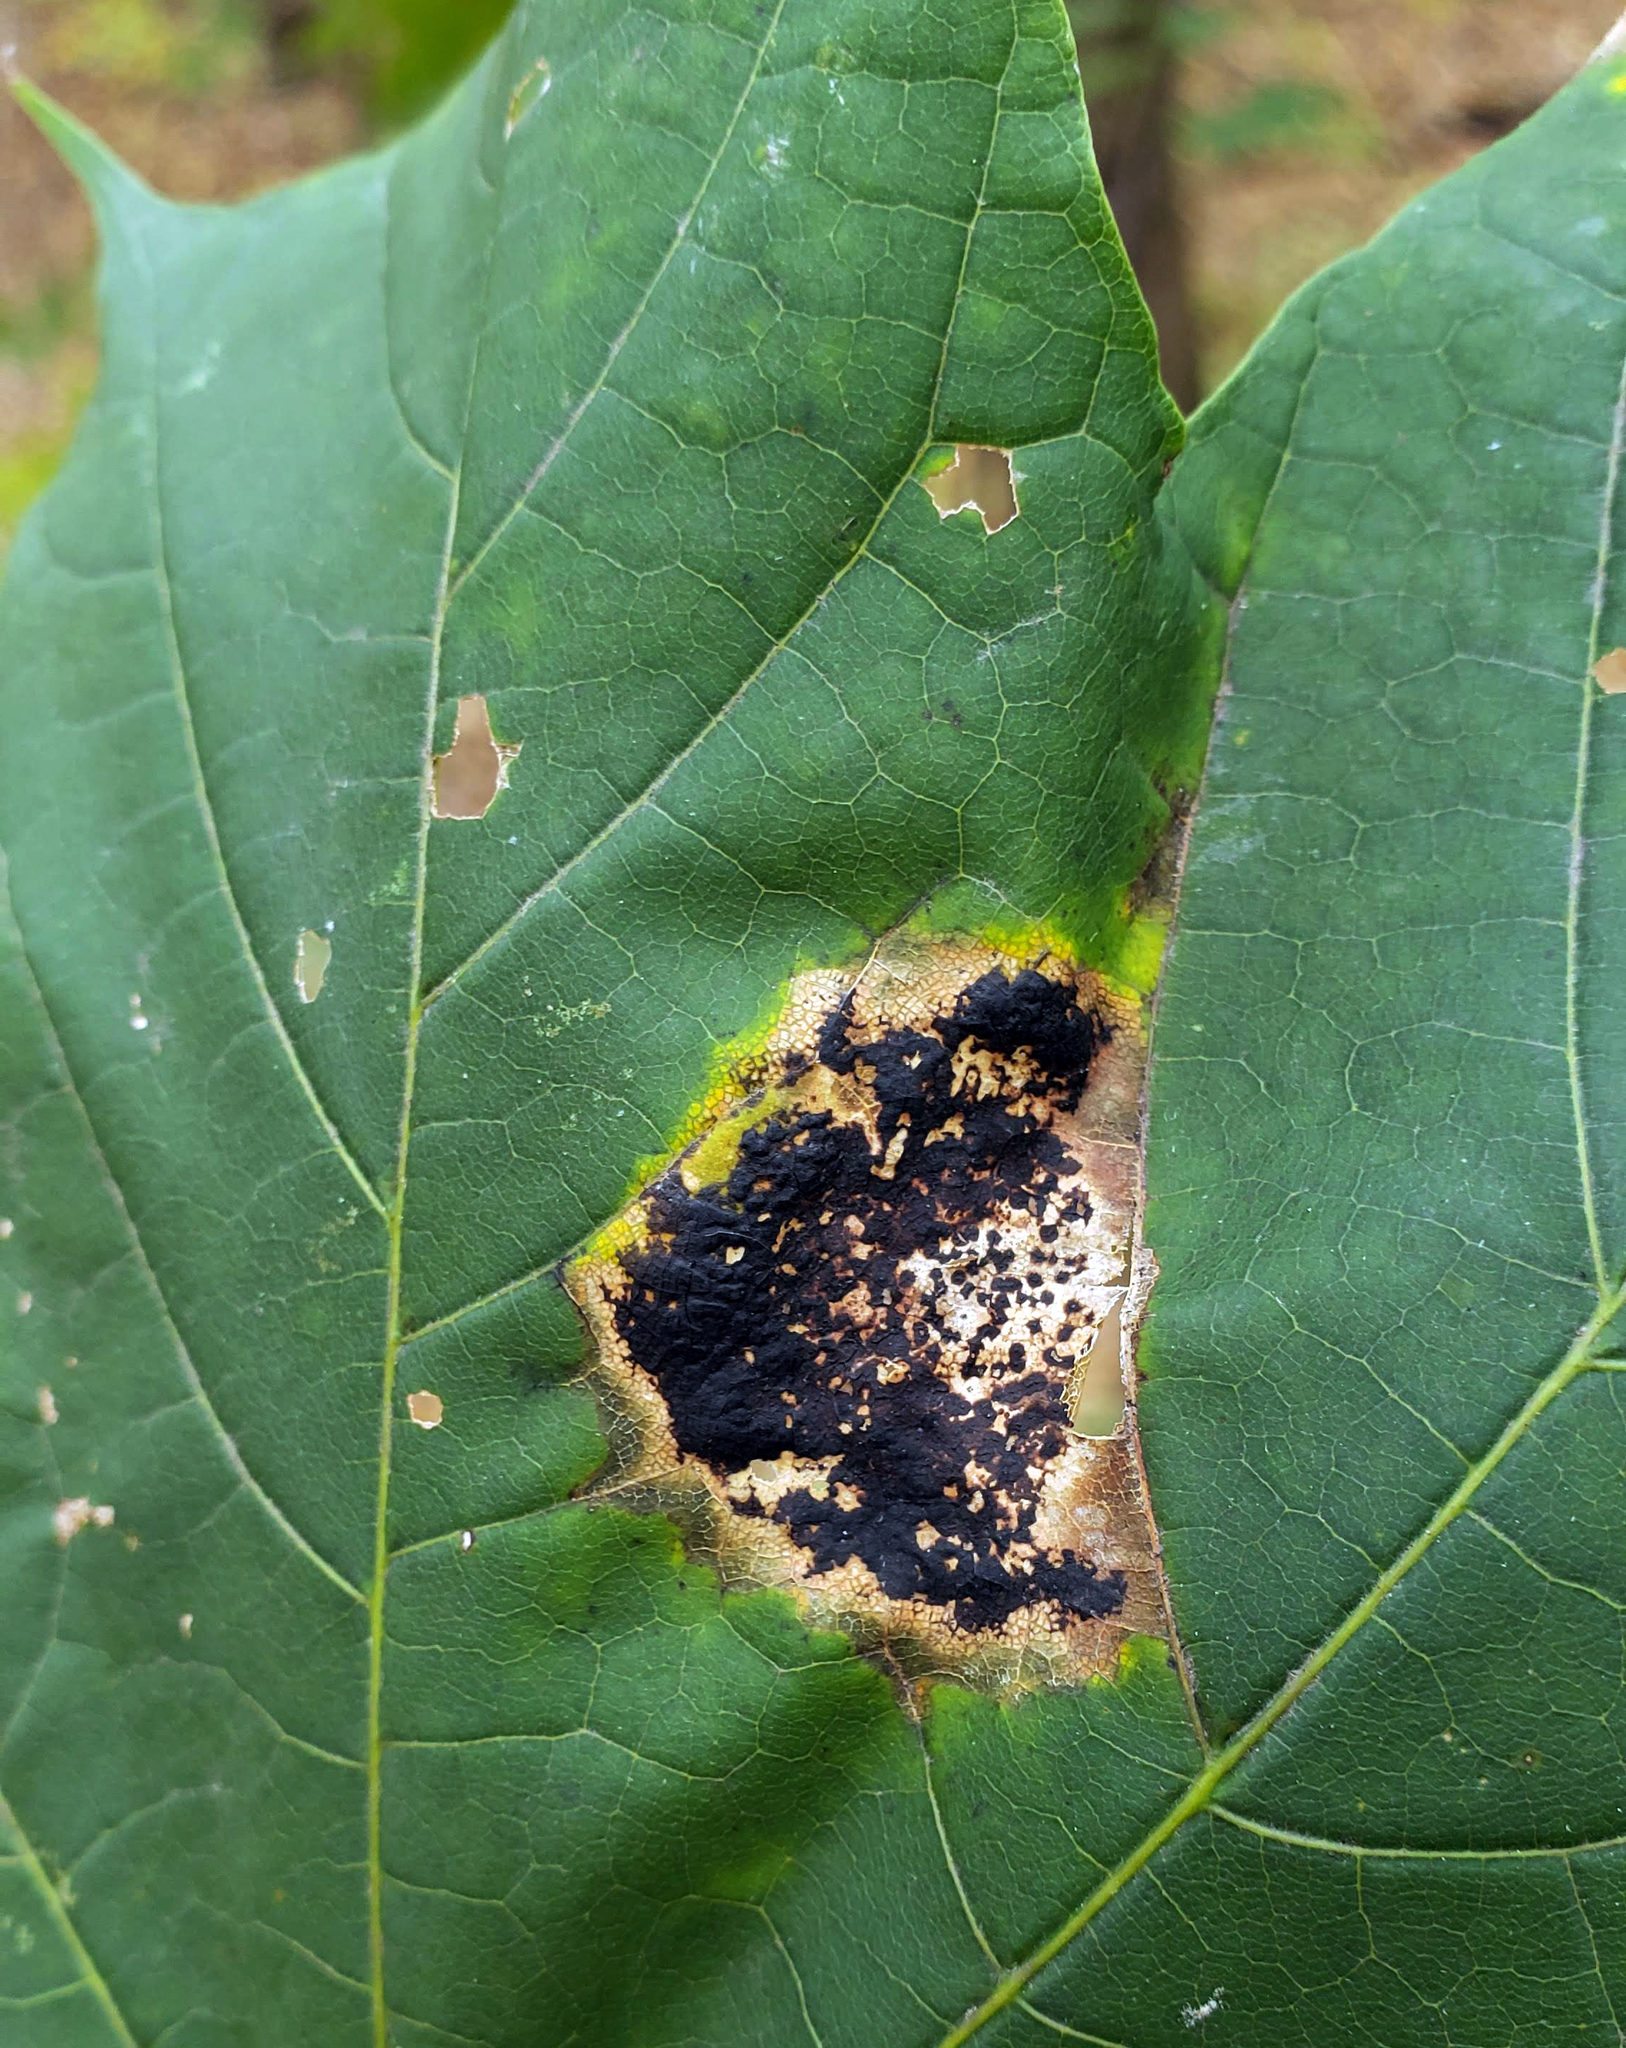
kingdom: Fungi
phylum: Ascomycota
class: Leotiomycetes
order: Rhytismatales
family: Rhytismataceae
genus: Rhytisma
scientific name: Rhytisma acerinum
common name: European tar spot
